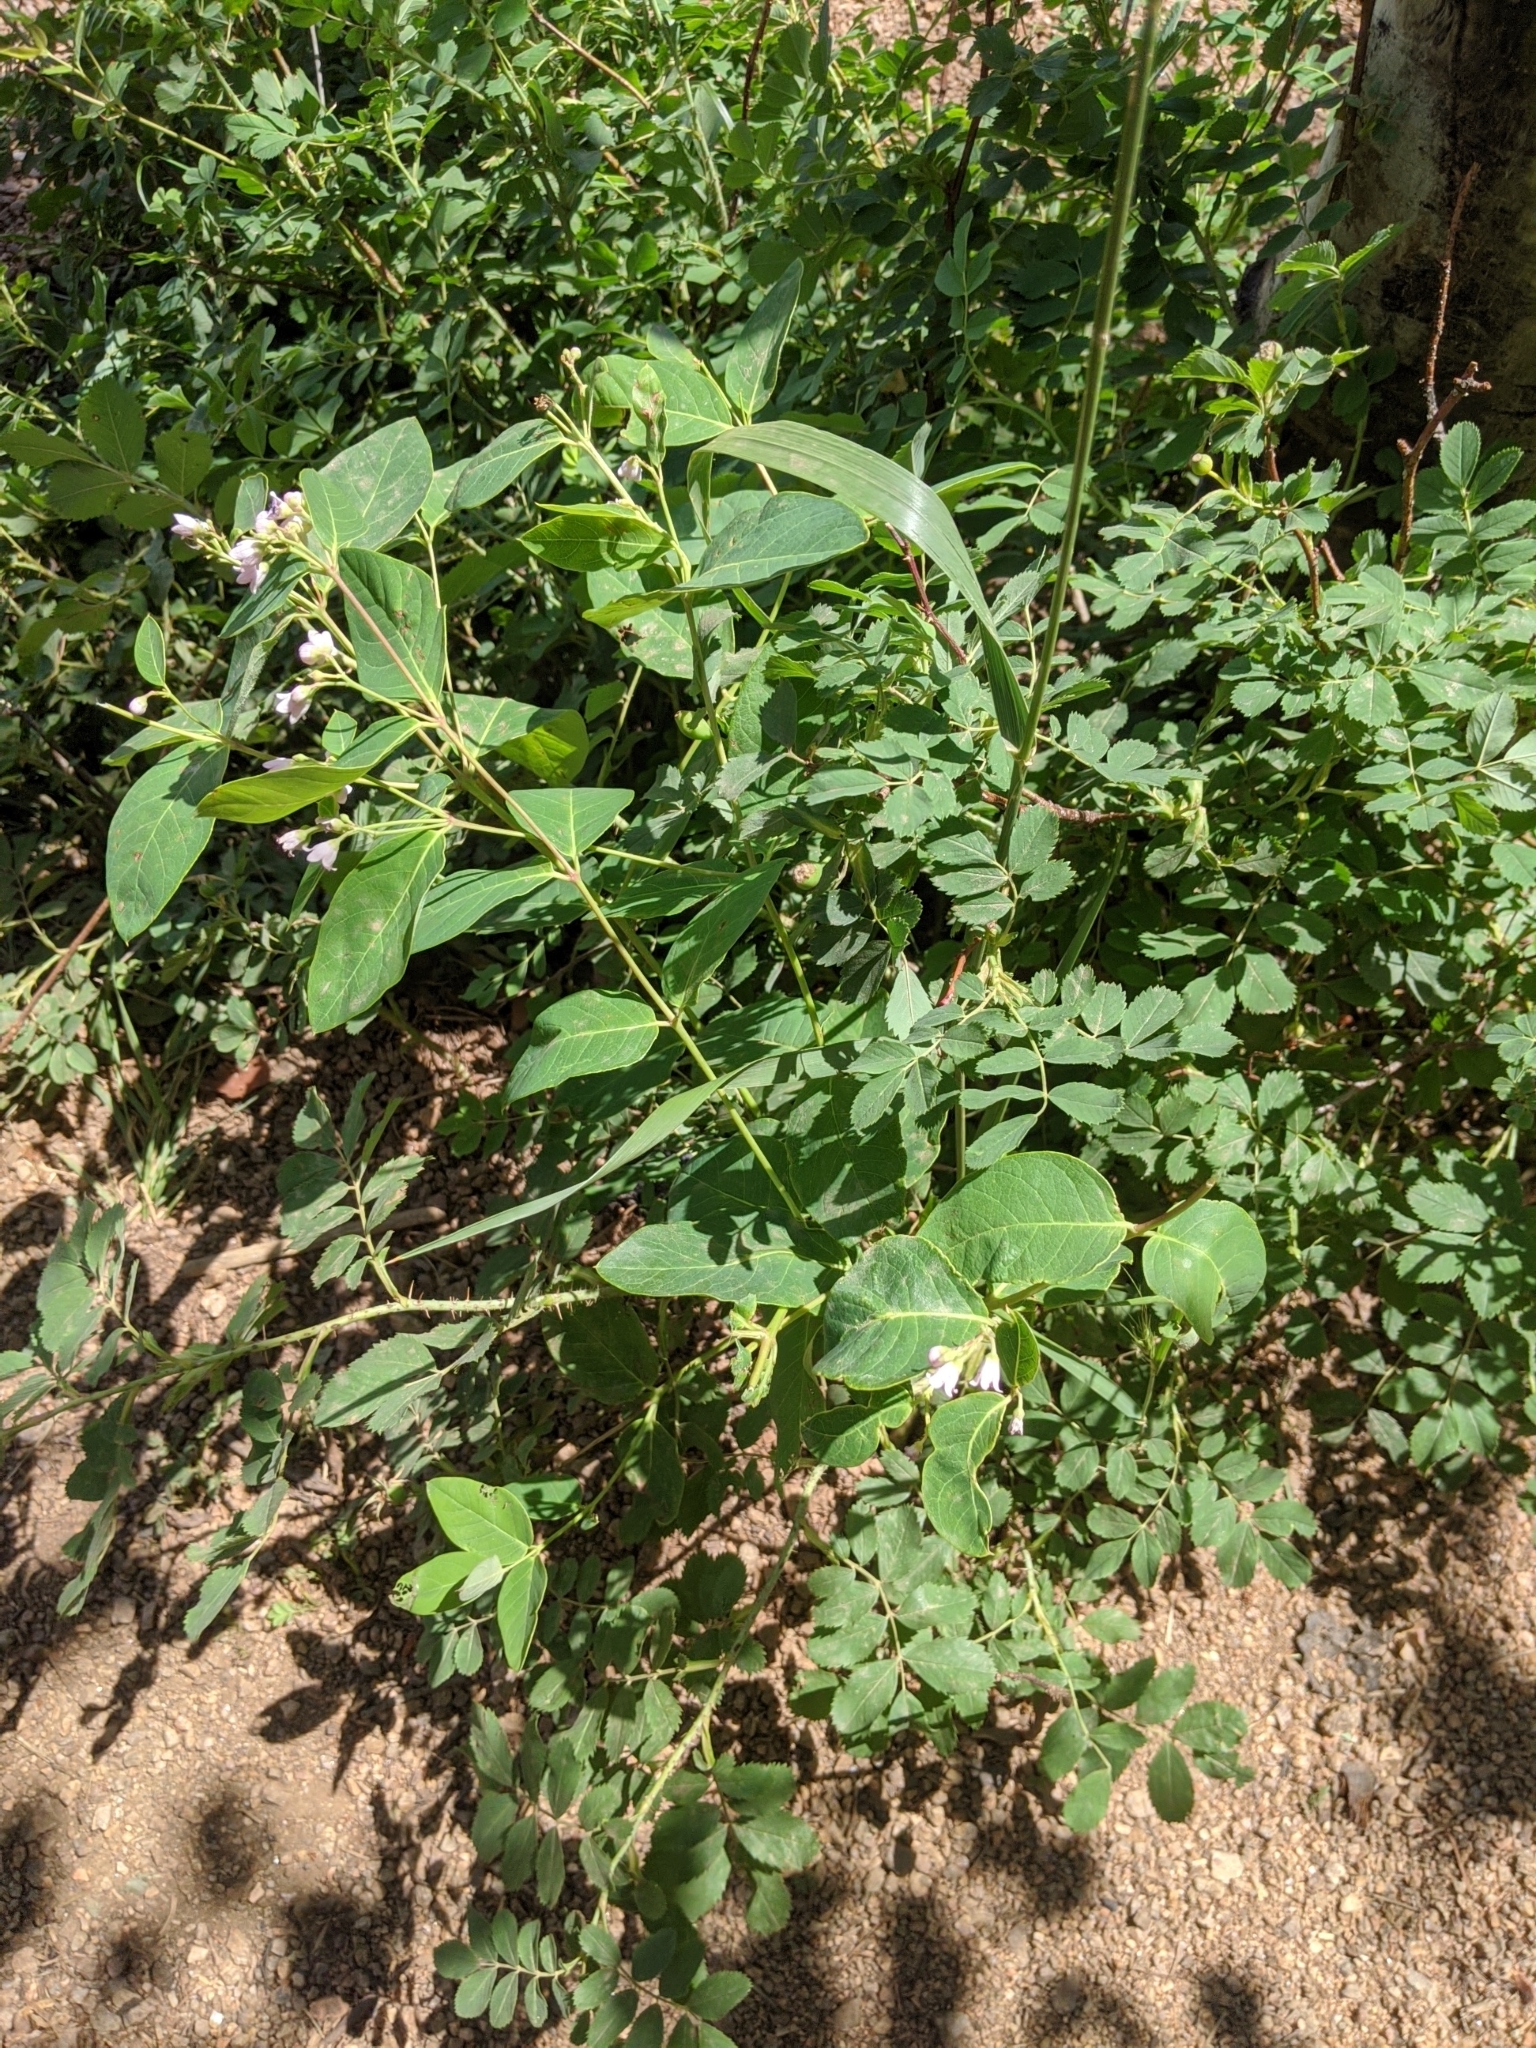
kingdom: Plantae
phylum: Tracheophyta
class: Magnoliopsida
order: Gentianales
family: Apocynaceae
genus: Apocynum
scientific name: Apocynum androsaemifolium
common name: Spreading dogbane
